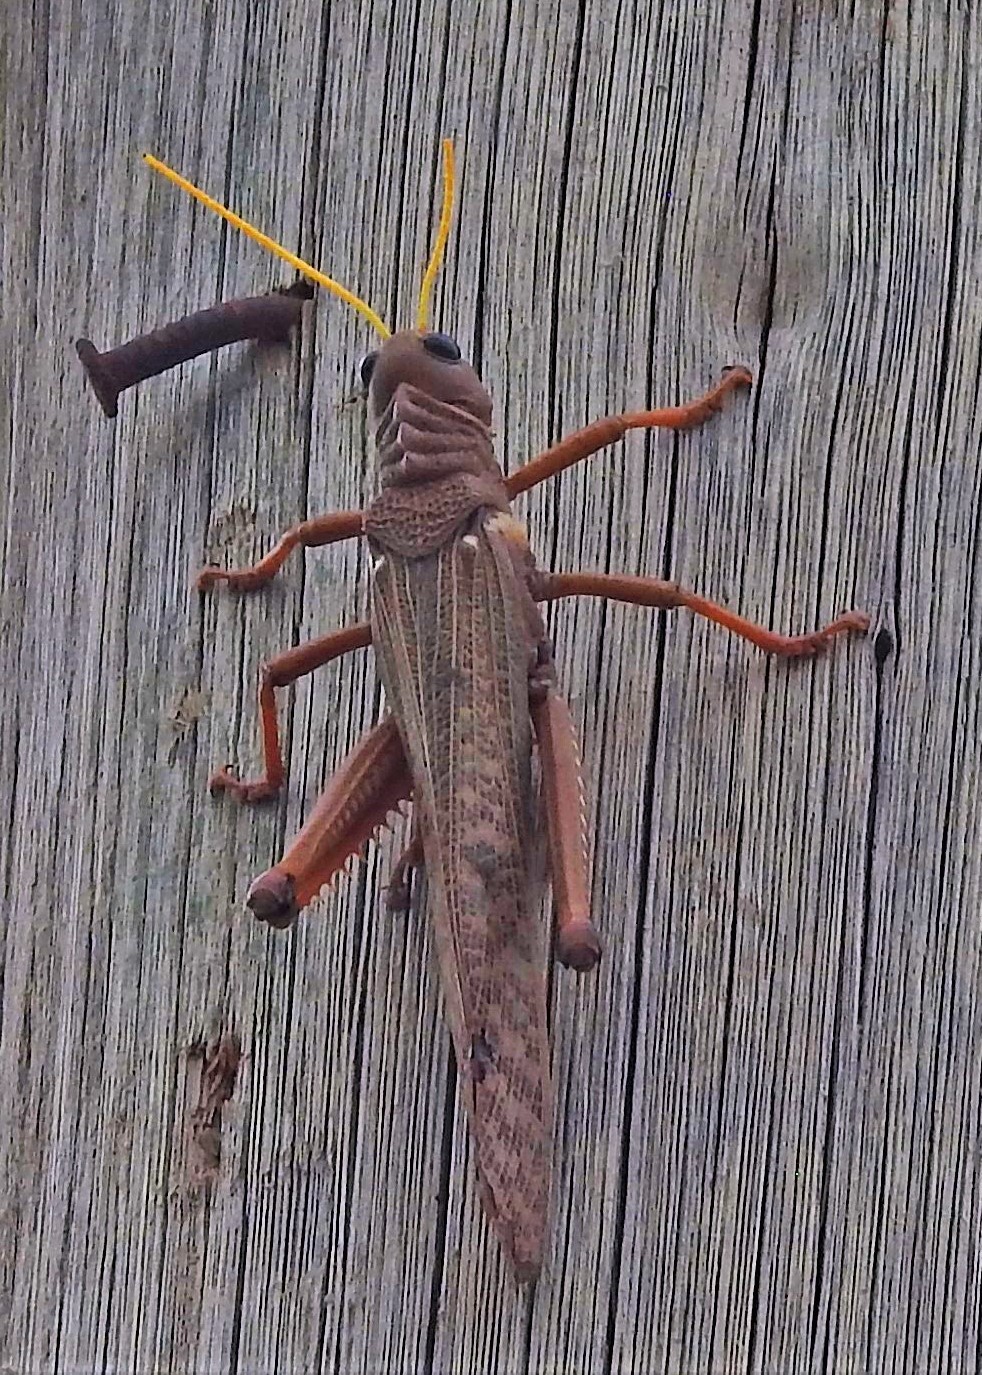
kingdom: Animalia
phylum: Arthropoda
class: Insecta
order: Orthoptera
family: Romaleidae
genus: Tropidacris
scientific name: Tropidacris collaris
